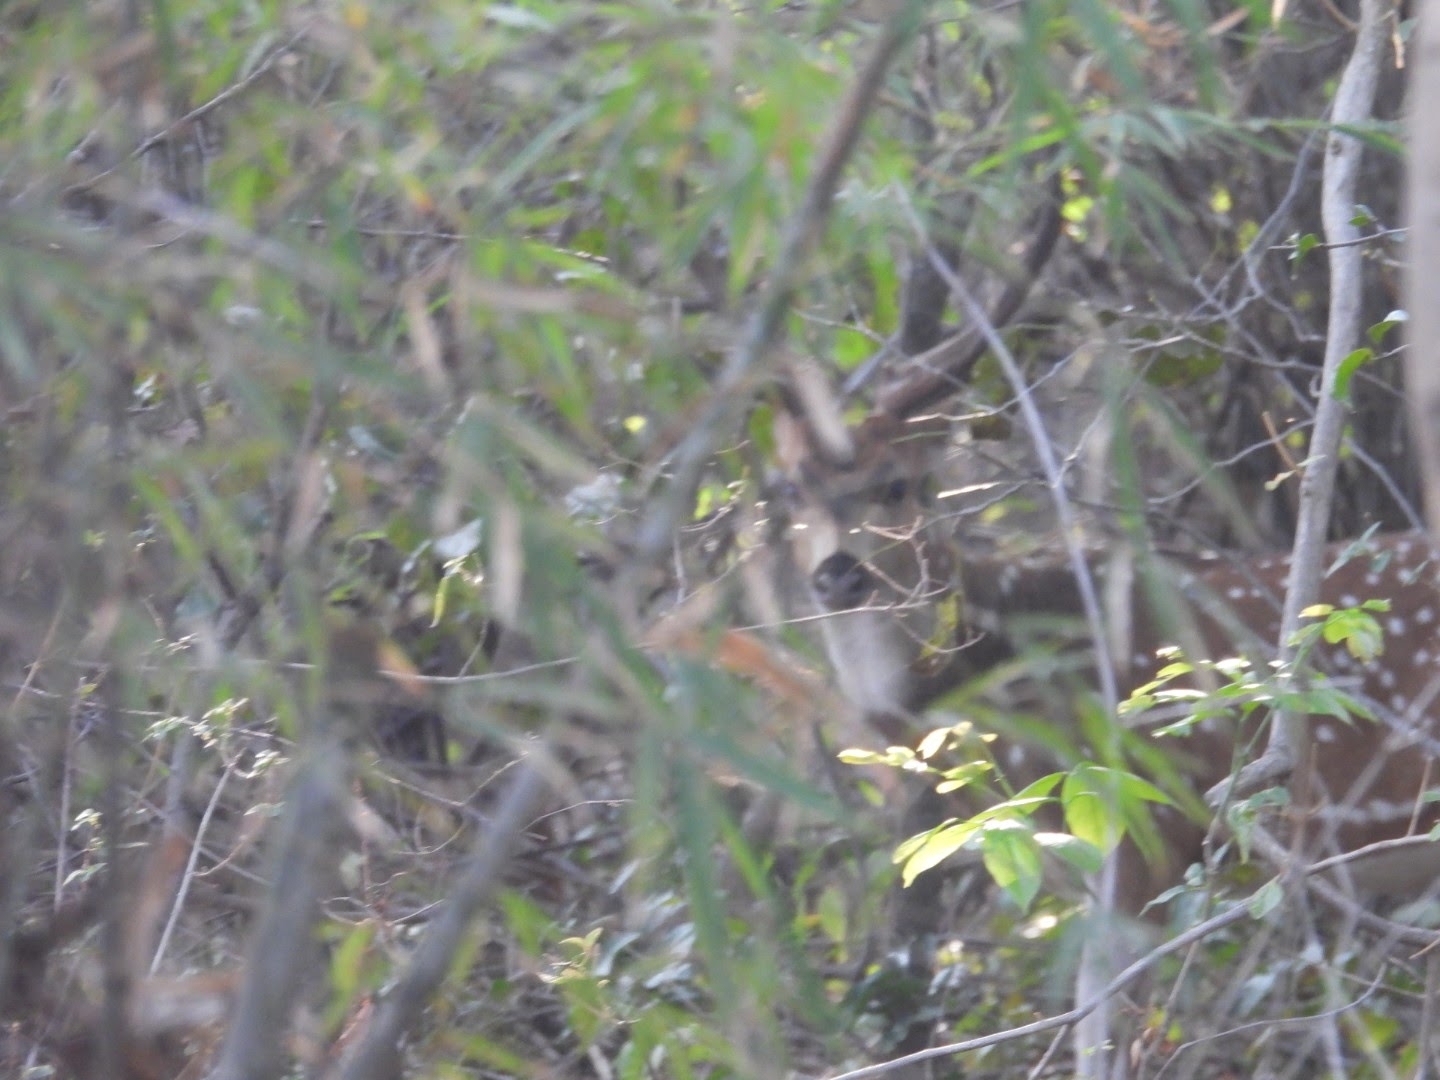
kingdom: Animalia
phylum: Chordata
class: Mammalia
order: Artiodactyla
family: Cervidae
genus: Axis
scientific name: Axis axis
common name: Chital
